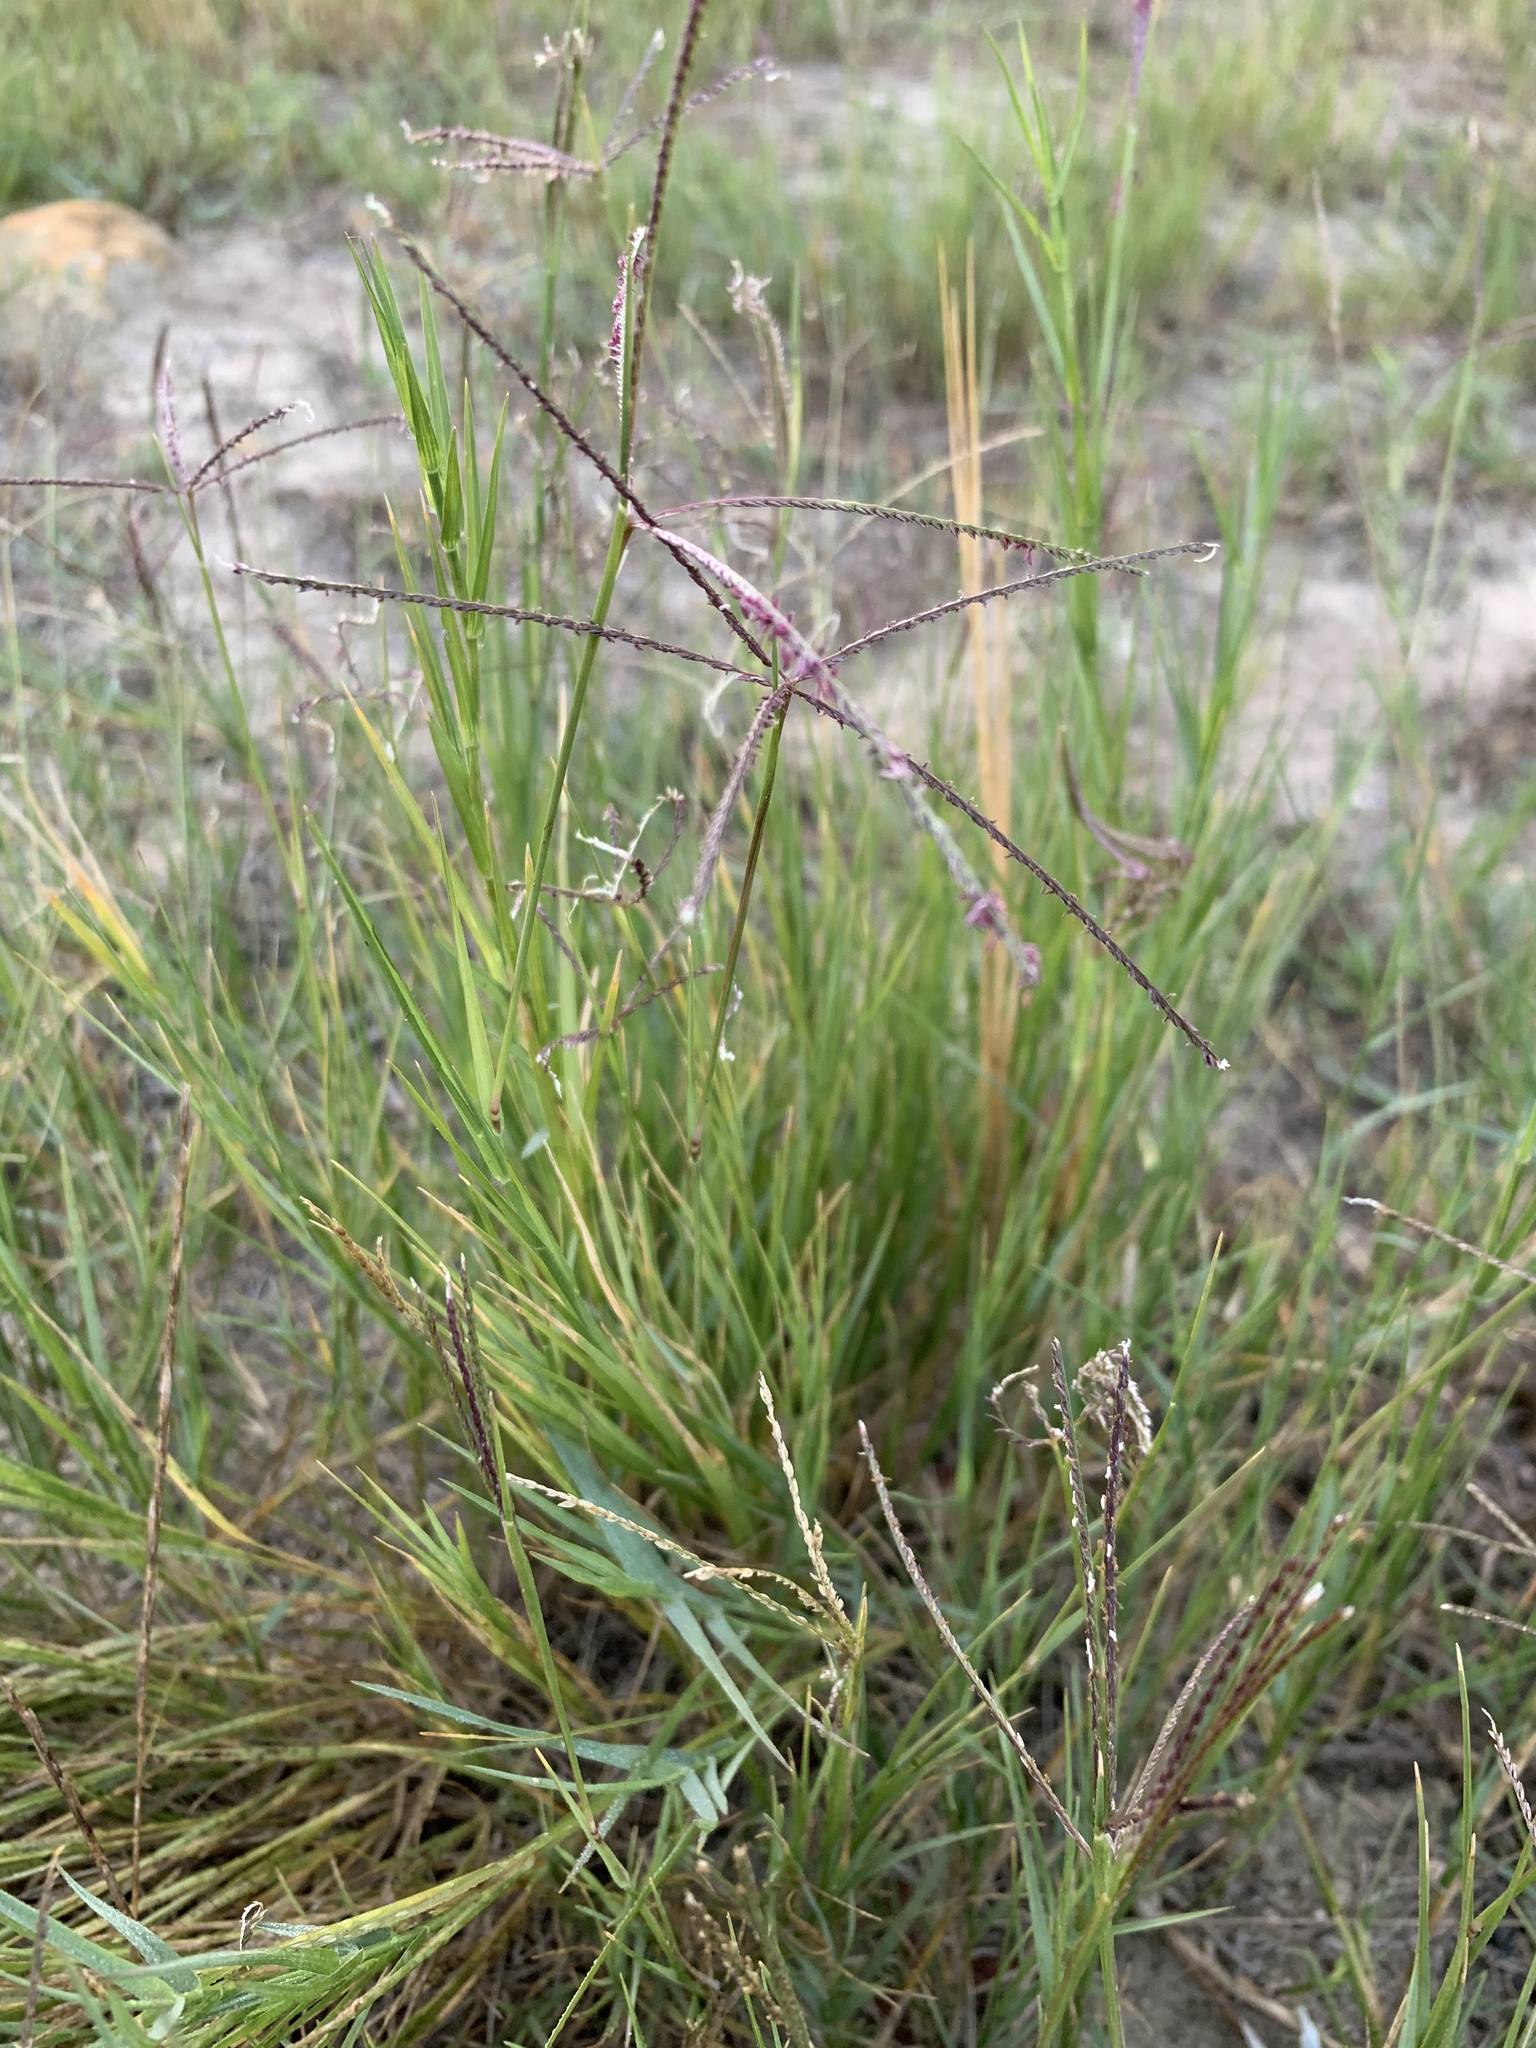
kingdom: Plantae
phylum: Tracheophyta
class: Liliopsida
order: Poales
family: Poaceae
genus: Cynodon
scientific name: Cynodon dactylon
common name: Bermuda grass
